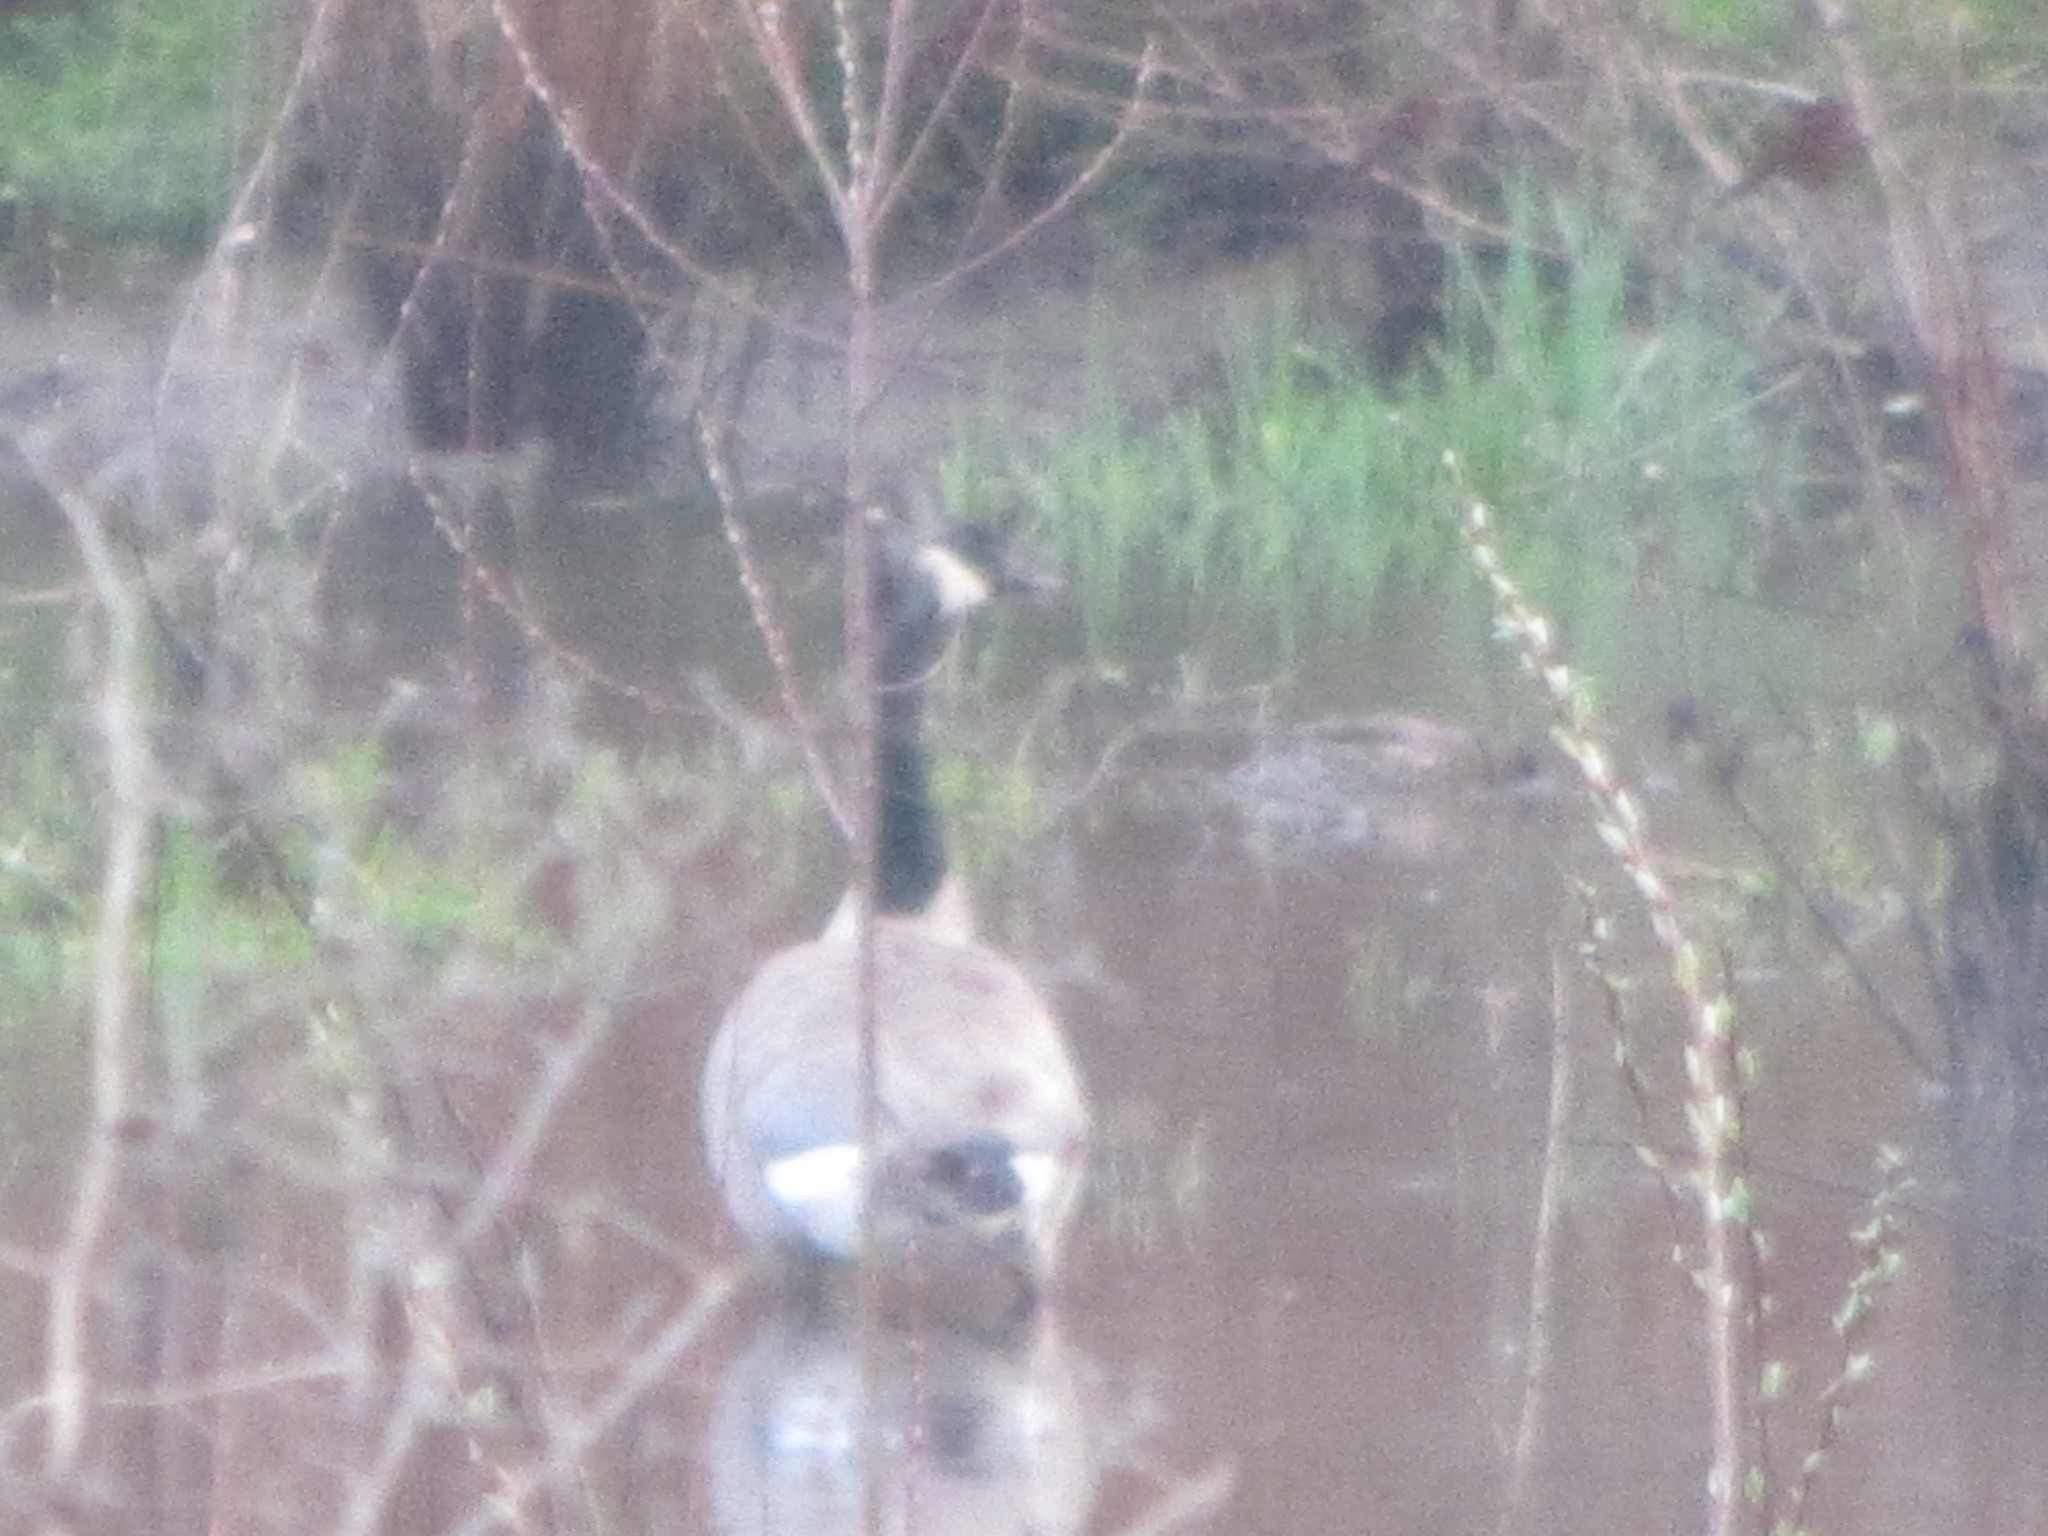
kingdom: Animalia
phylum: Chordata
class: Aves
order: Anseriformes
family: Anatidae
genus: Branta
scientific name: Branta canadensis
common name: Canada goose
